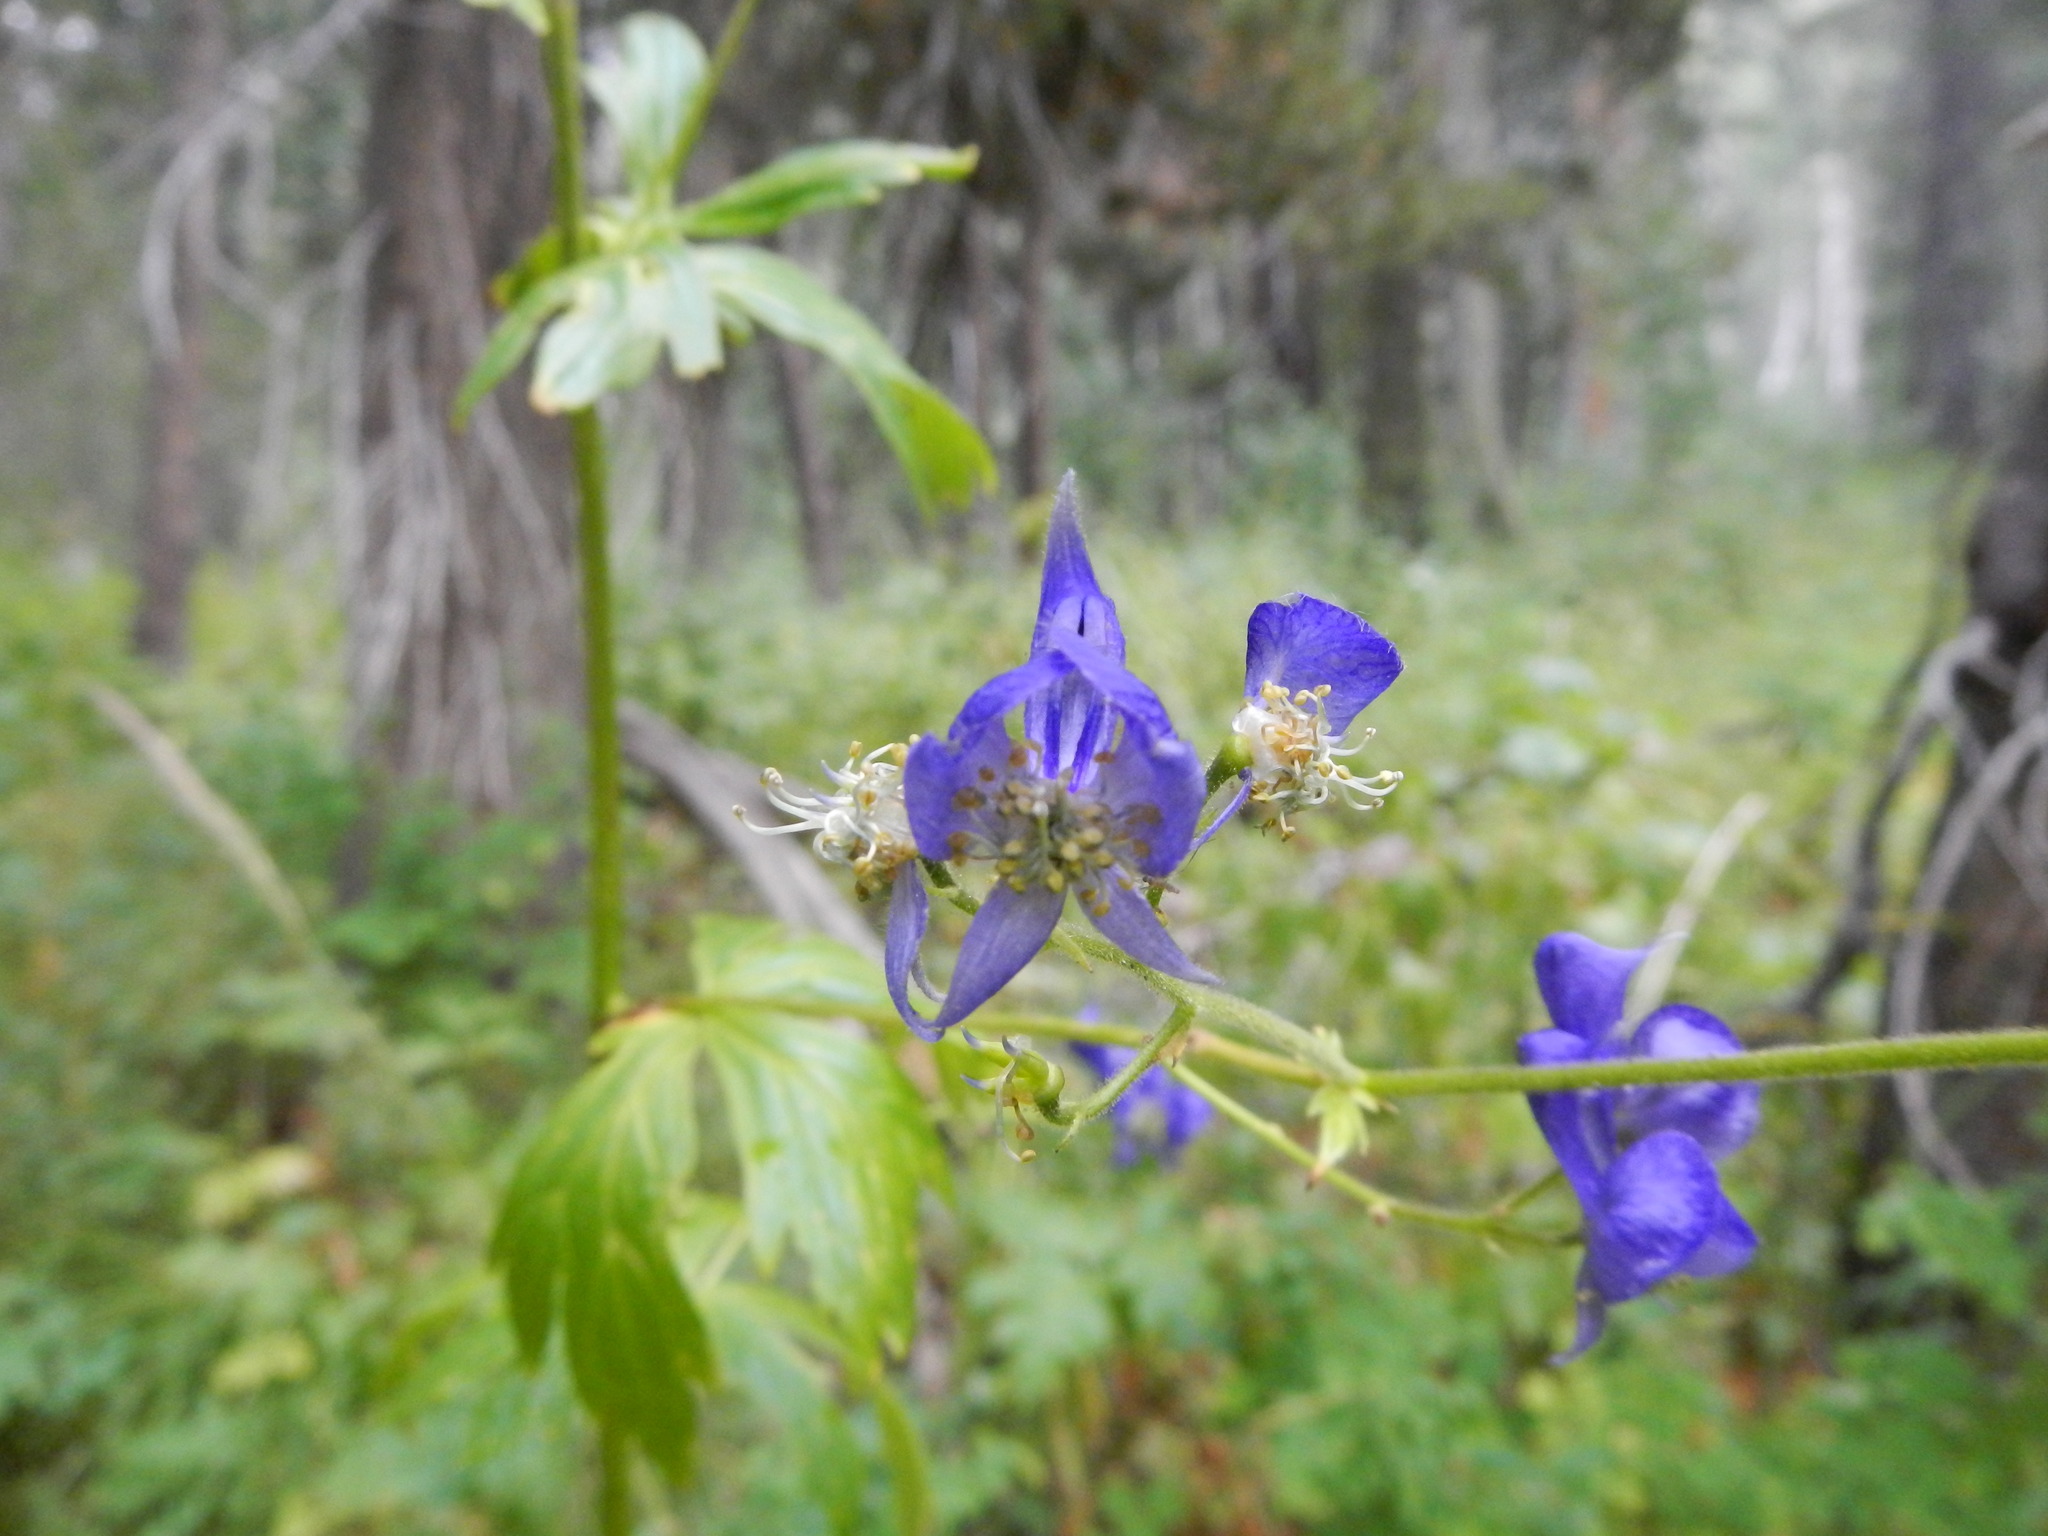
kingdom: Plantae
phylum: Tracheophyta
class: Magnoliopsida
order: Ranunculales
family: Ranunculaceae
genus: Aconitum
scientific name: Aconitum columbianum
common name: Columbia aconite
